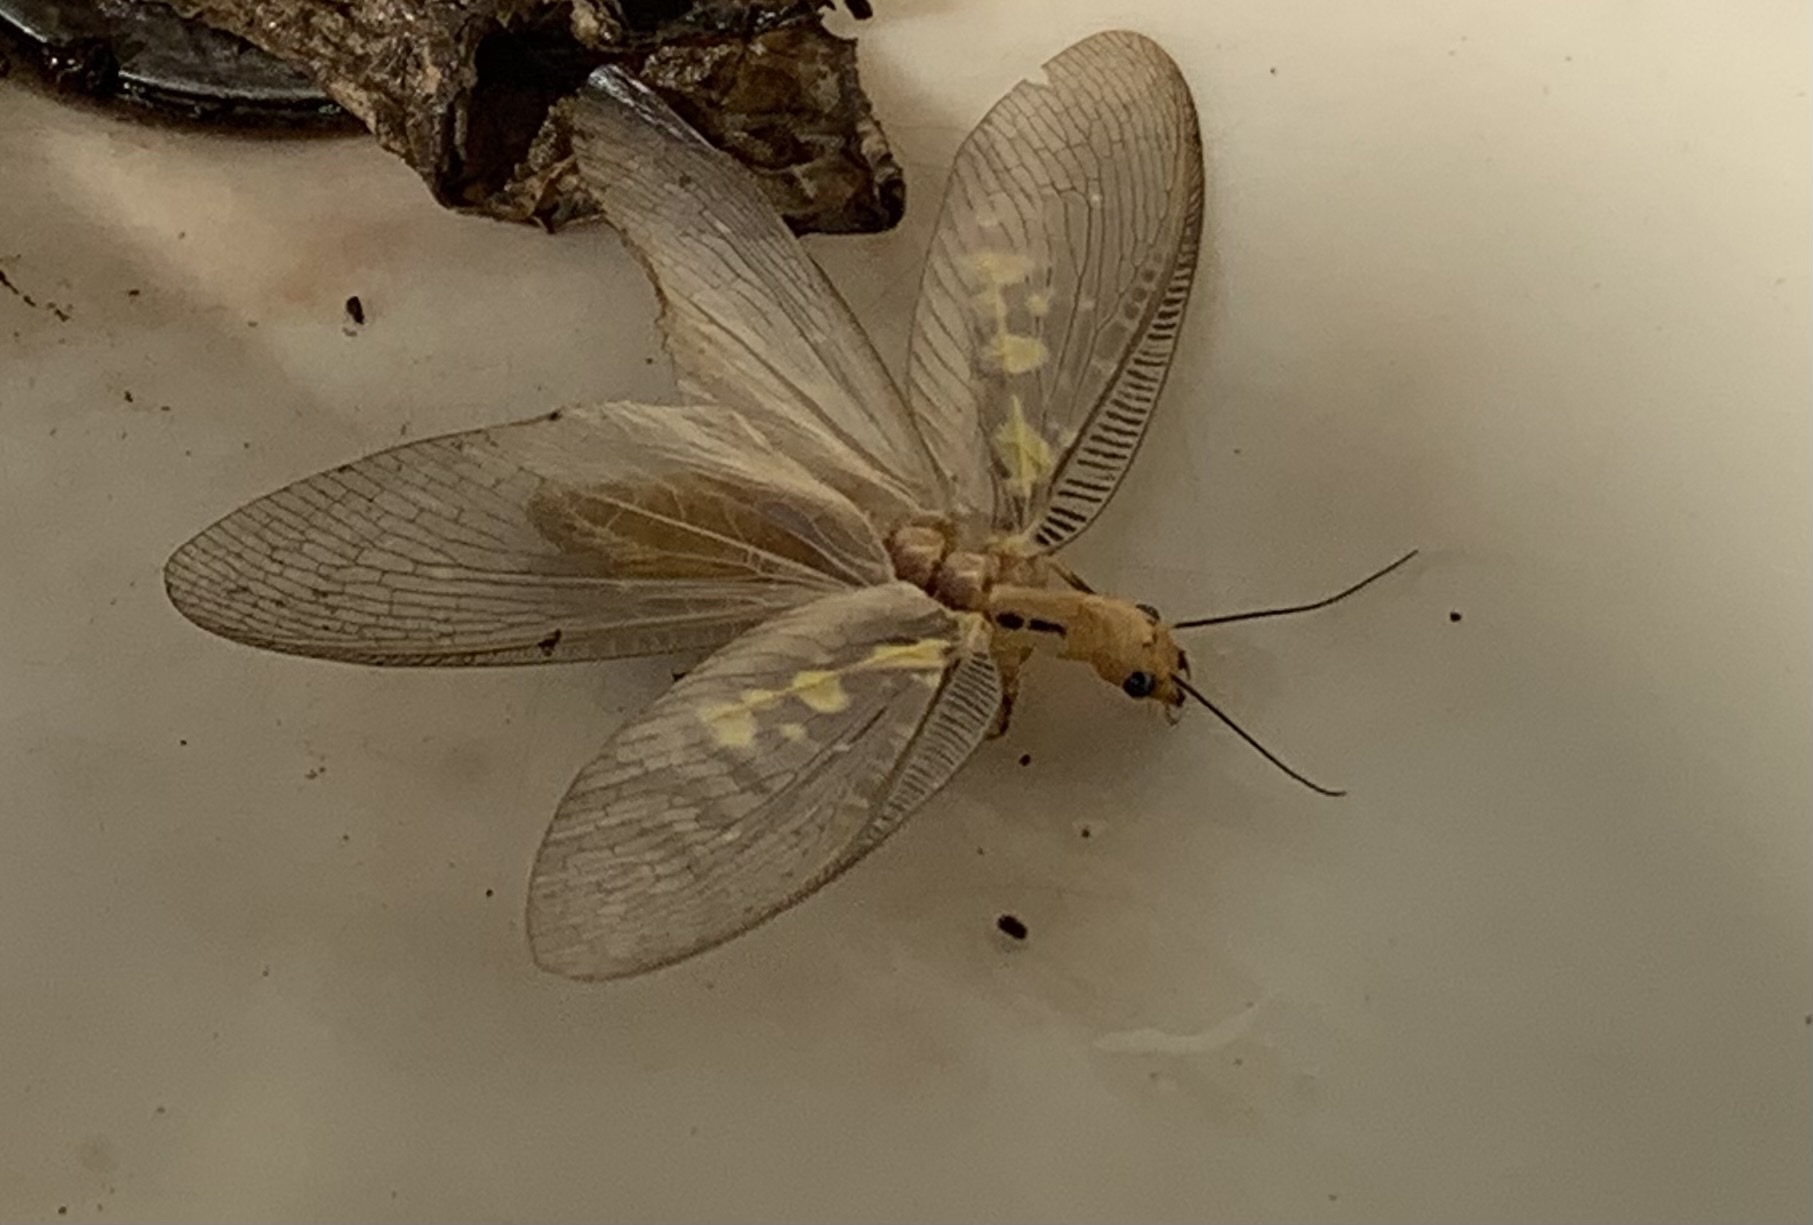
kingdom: Animalia
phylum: Arthropoda
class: Insecta
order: Megaloptera
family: Corydalidae
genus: Protohermes
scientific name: Protohermes costalis
